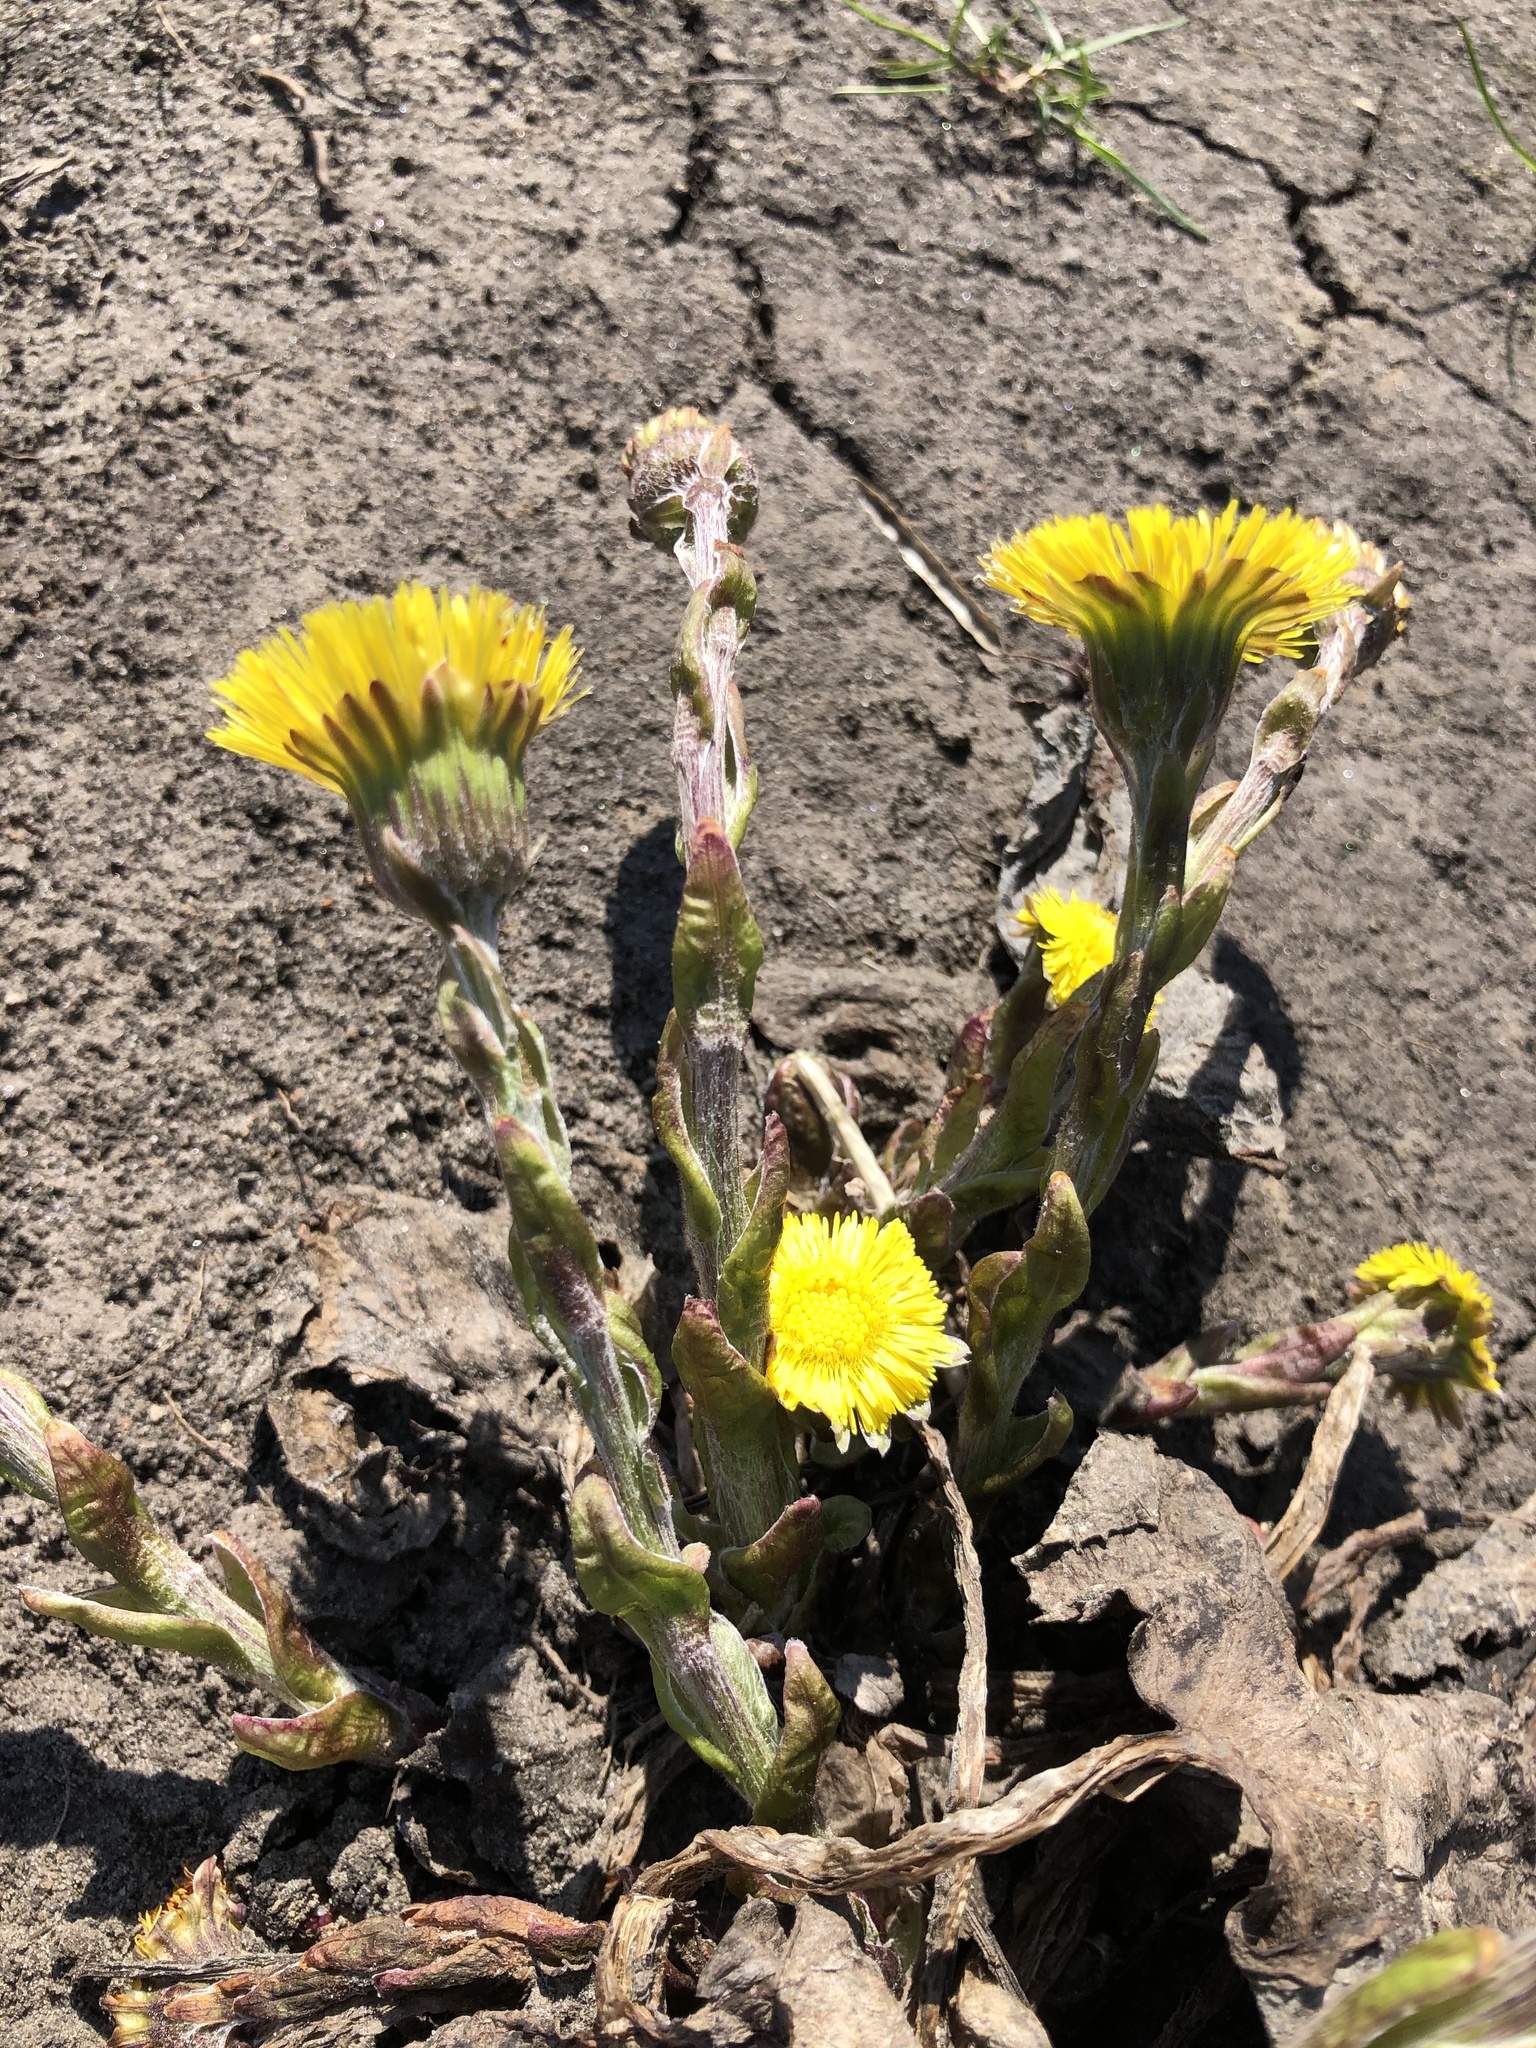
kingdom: Plantae
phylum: Tracheophyta
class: Magnoliopsida
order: Asterales
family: Asteraceae
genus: Tussilago
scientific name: Tussilago farfara
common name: Coltsfoot
